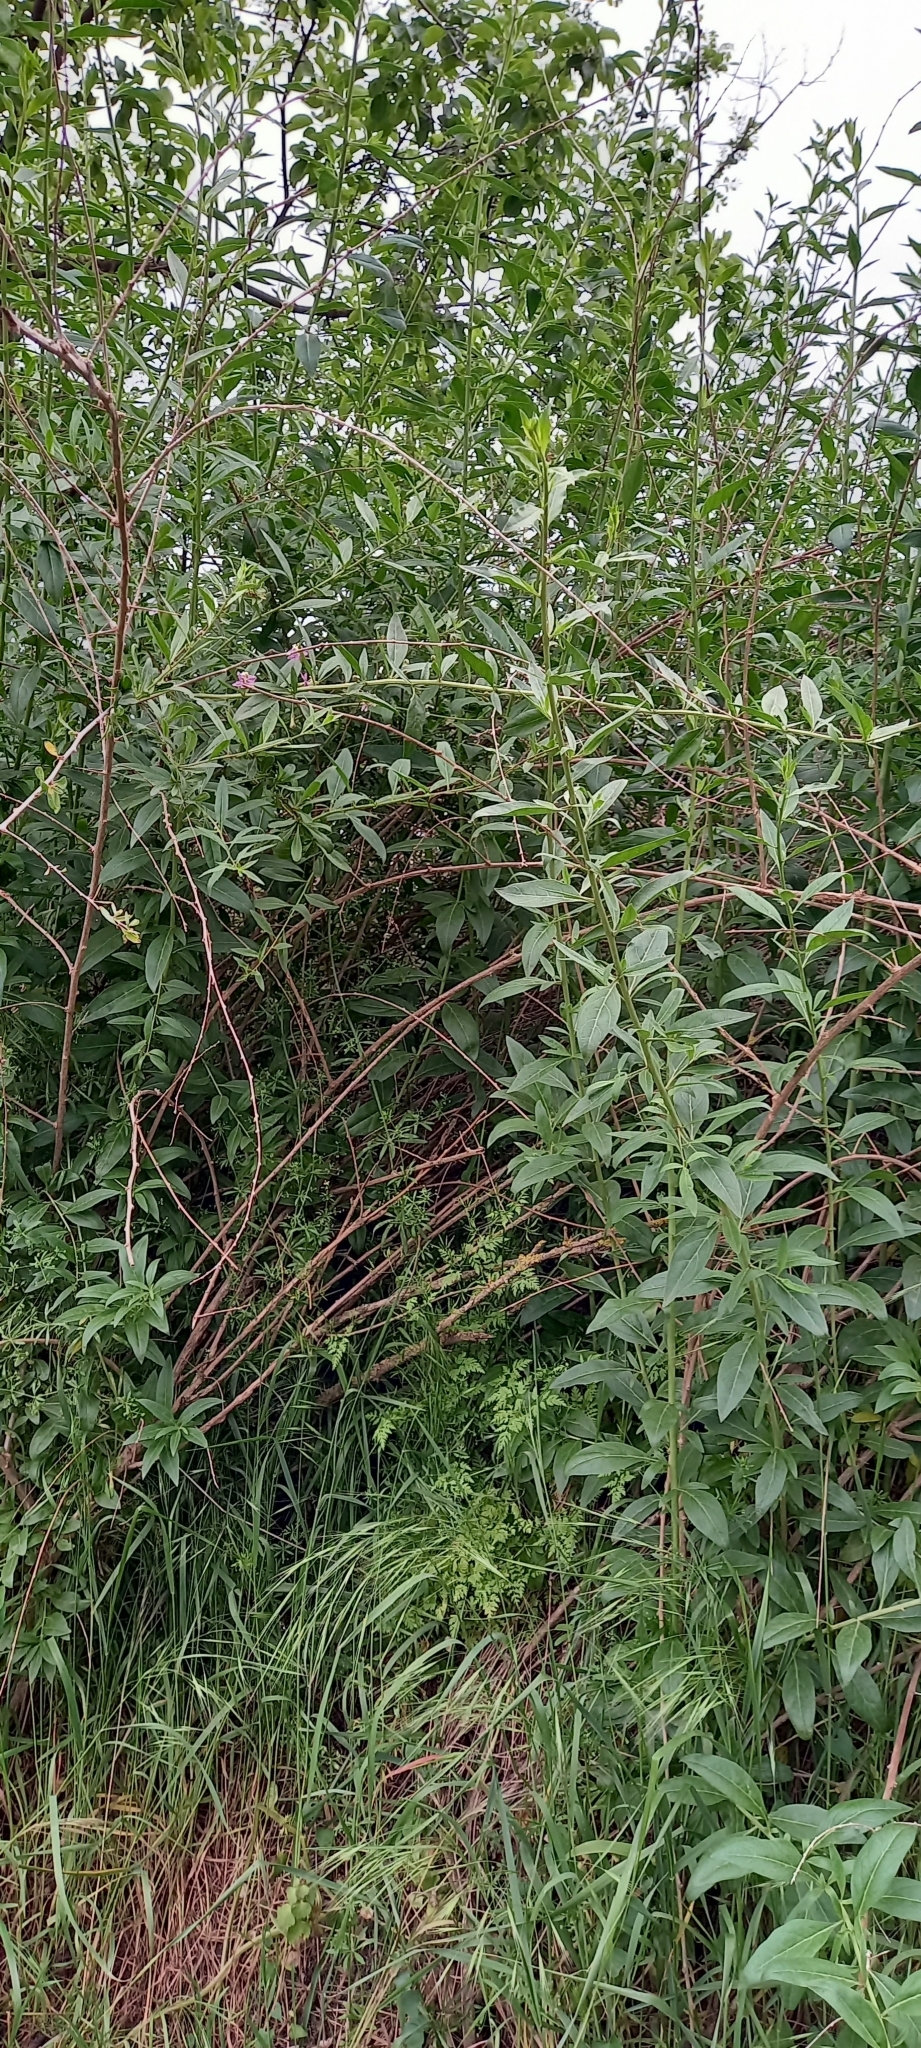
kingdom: Plantae
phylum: Tracheophyta
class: Magnoliopsida
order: Solanales
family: Solanaceae
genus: Lycium
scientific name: Lycium barbarum
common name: Duke of argyll's teaplant
